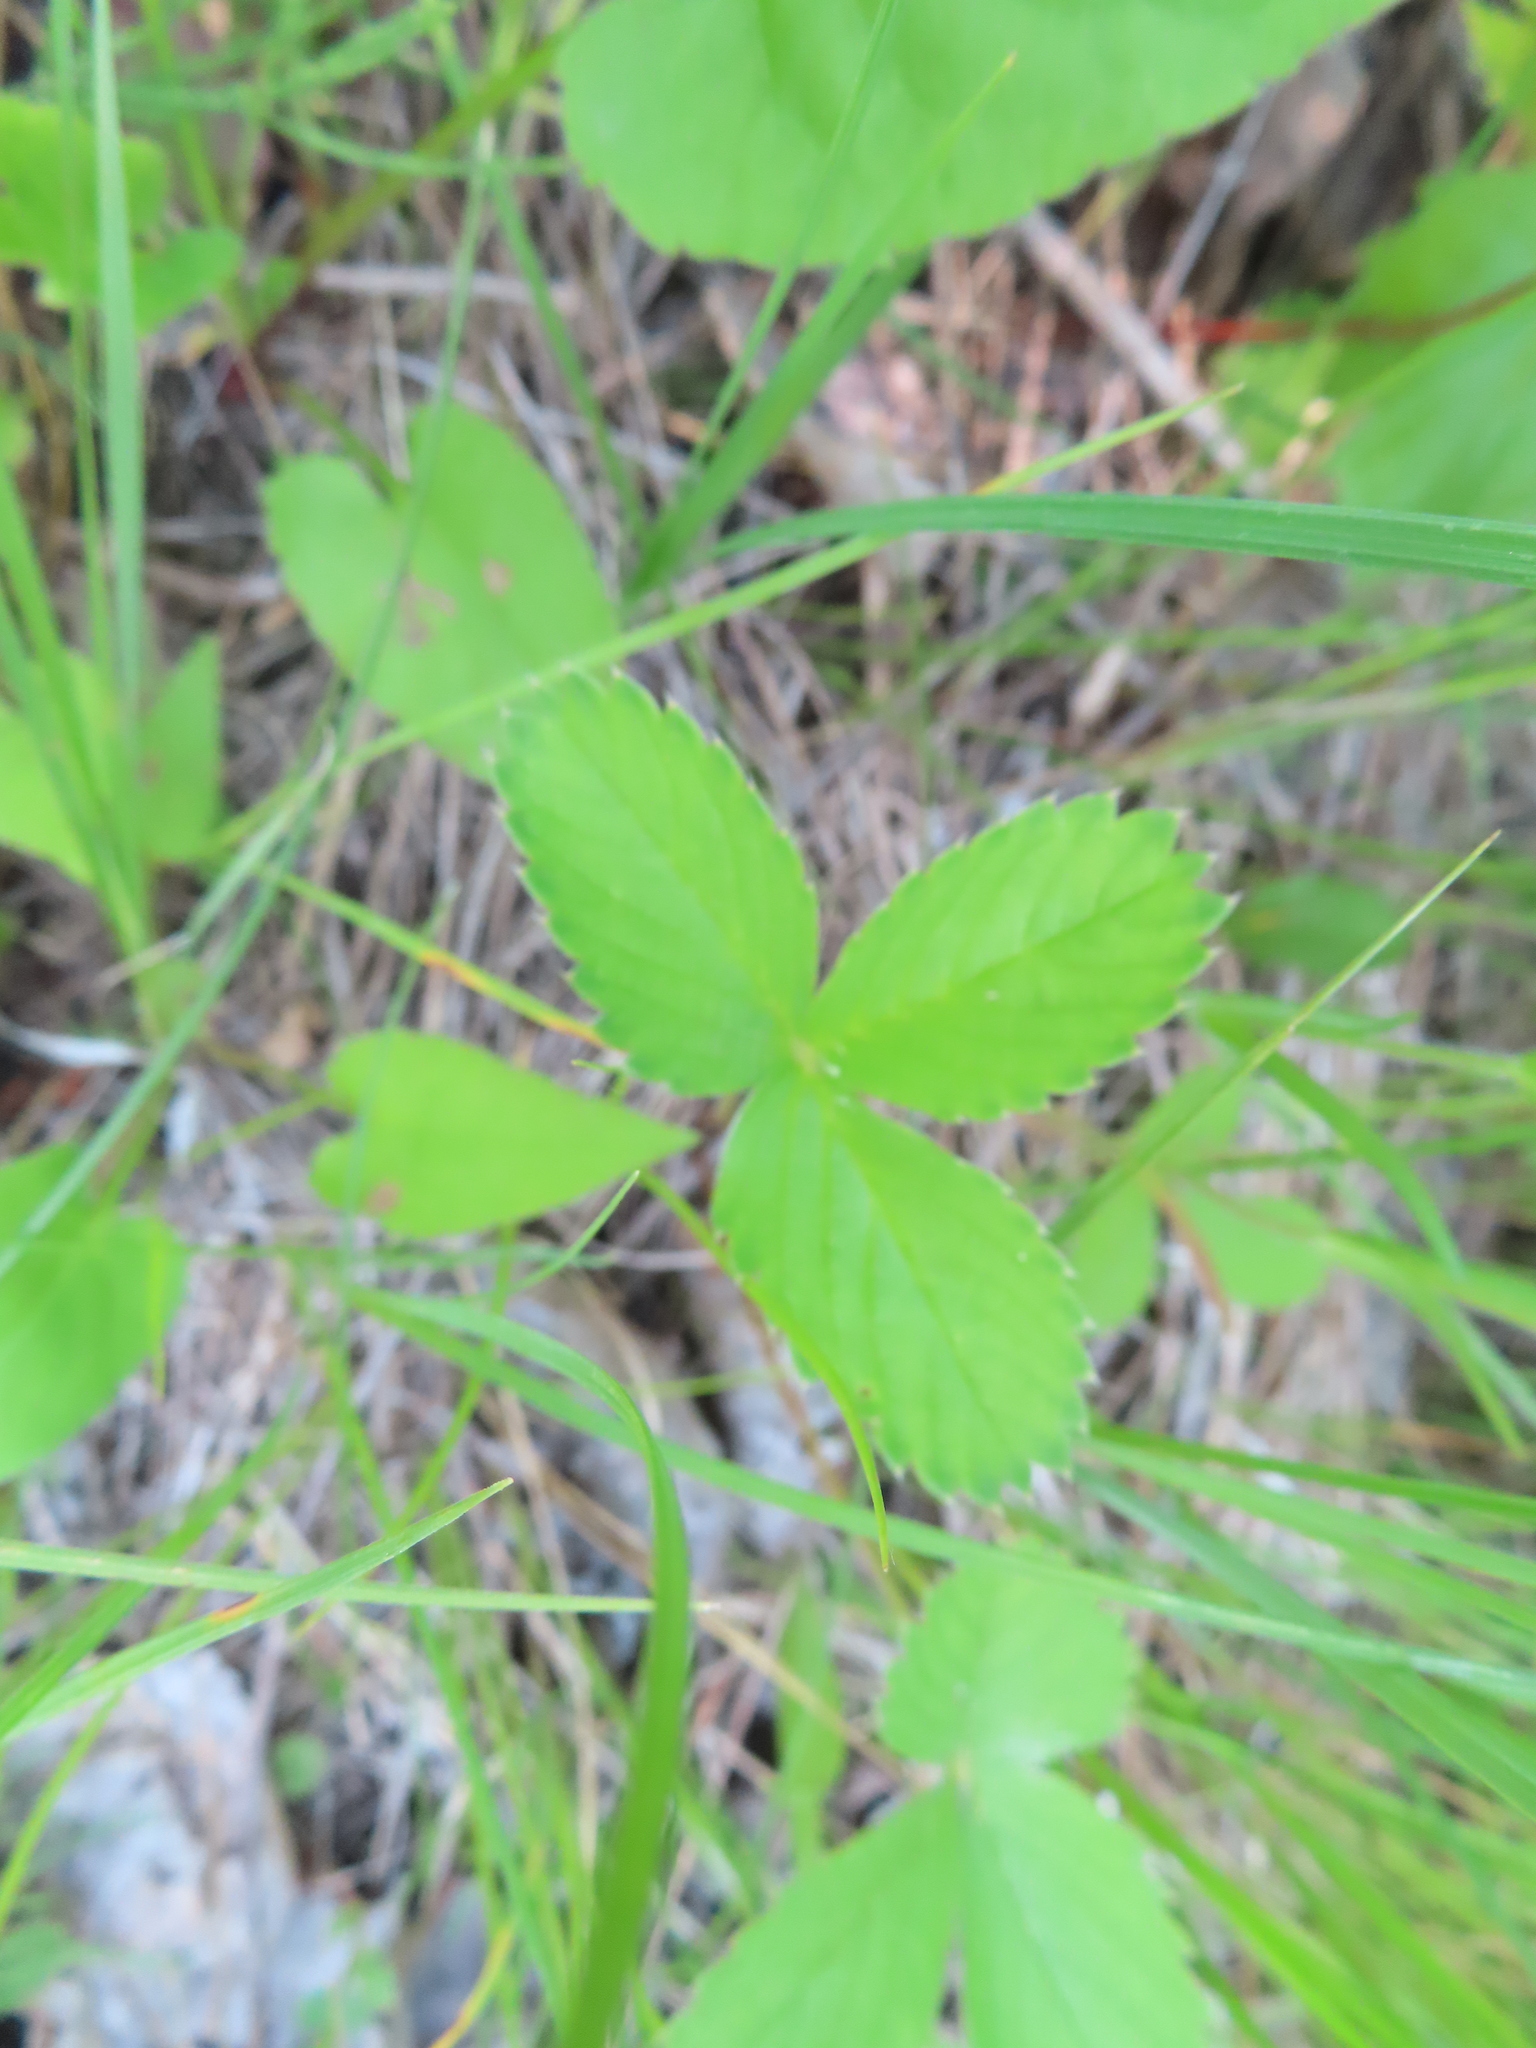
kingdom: Plantae
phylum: Tracheophyta
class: Magnoliopsida
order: Rosales
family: Rosaceae
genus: Fragaria
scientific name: Fragaria virginiana
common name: Thickleaved wild strawberry
